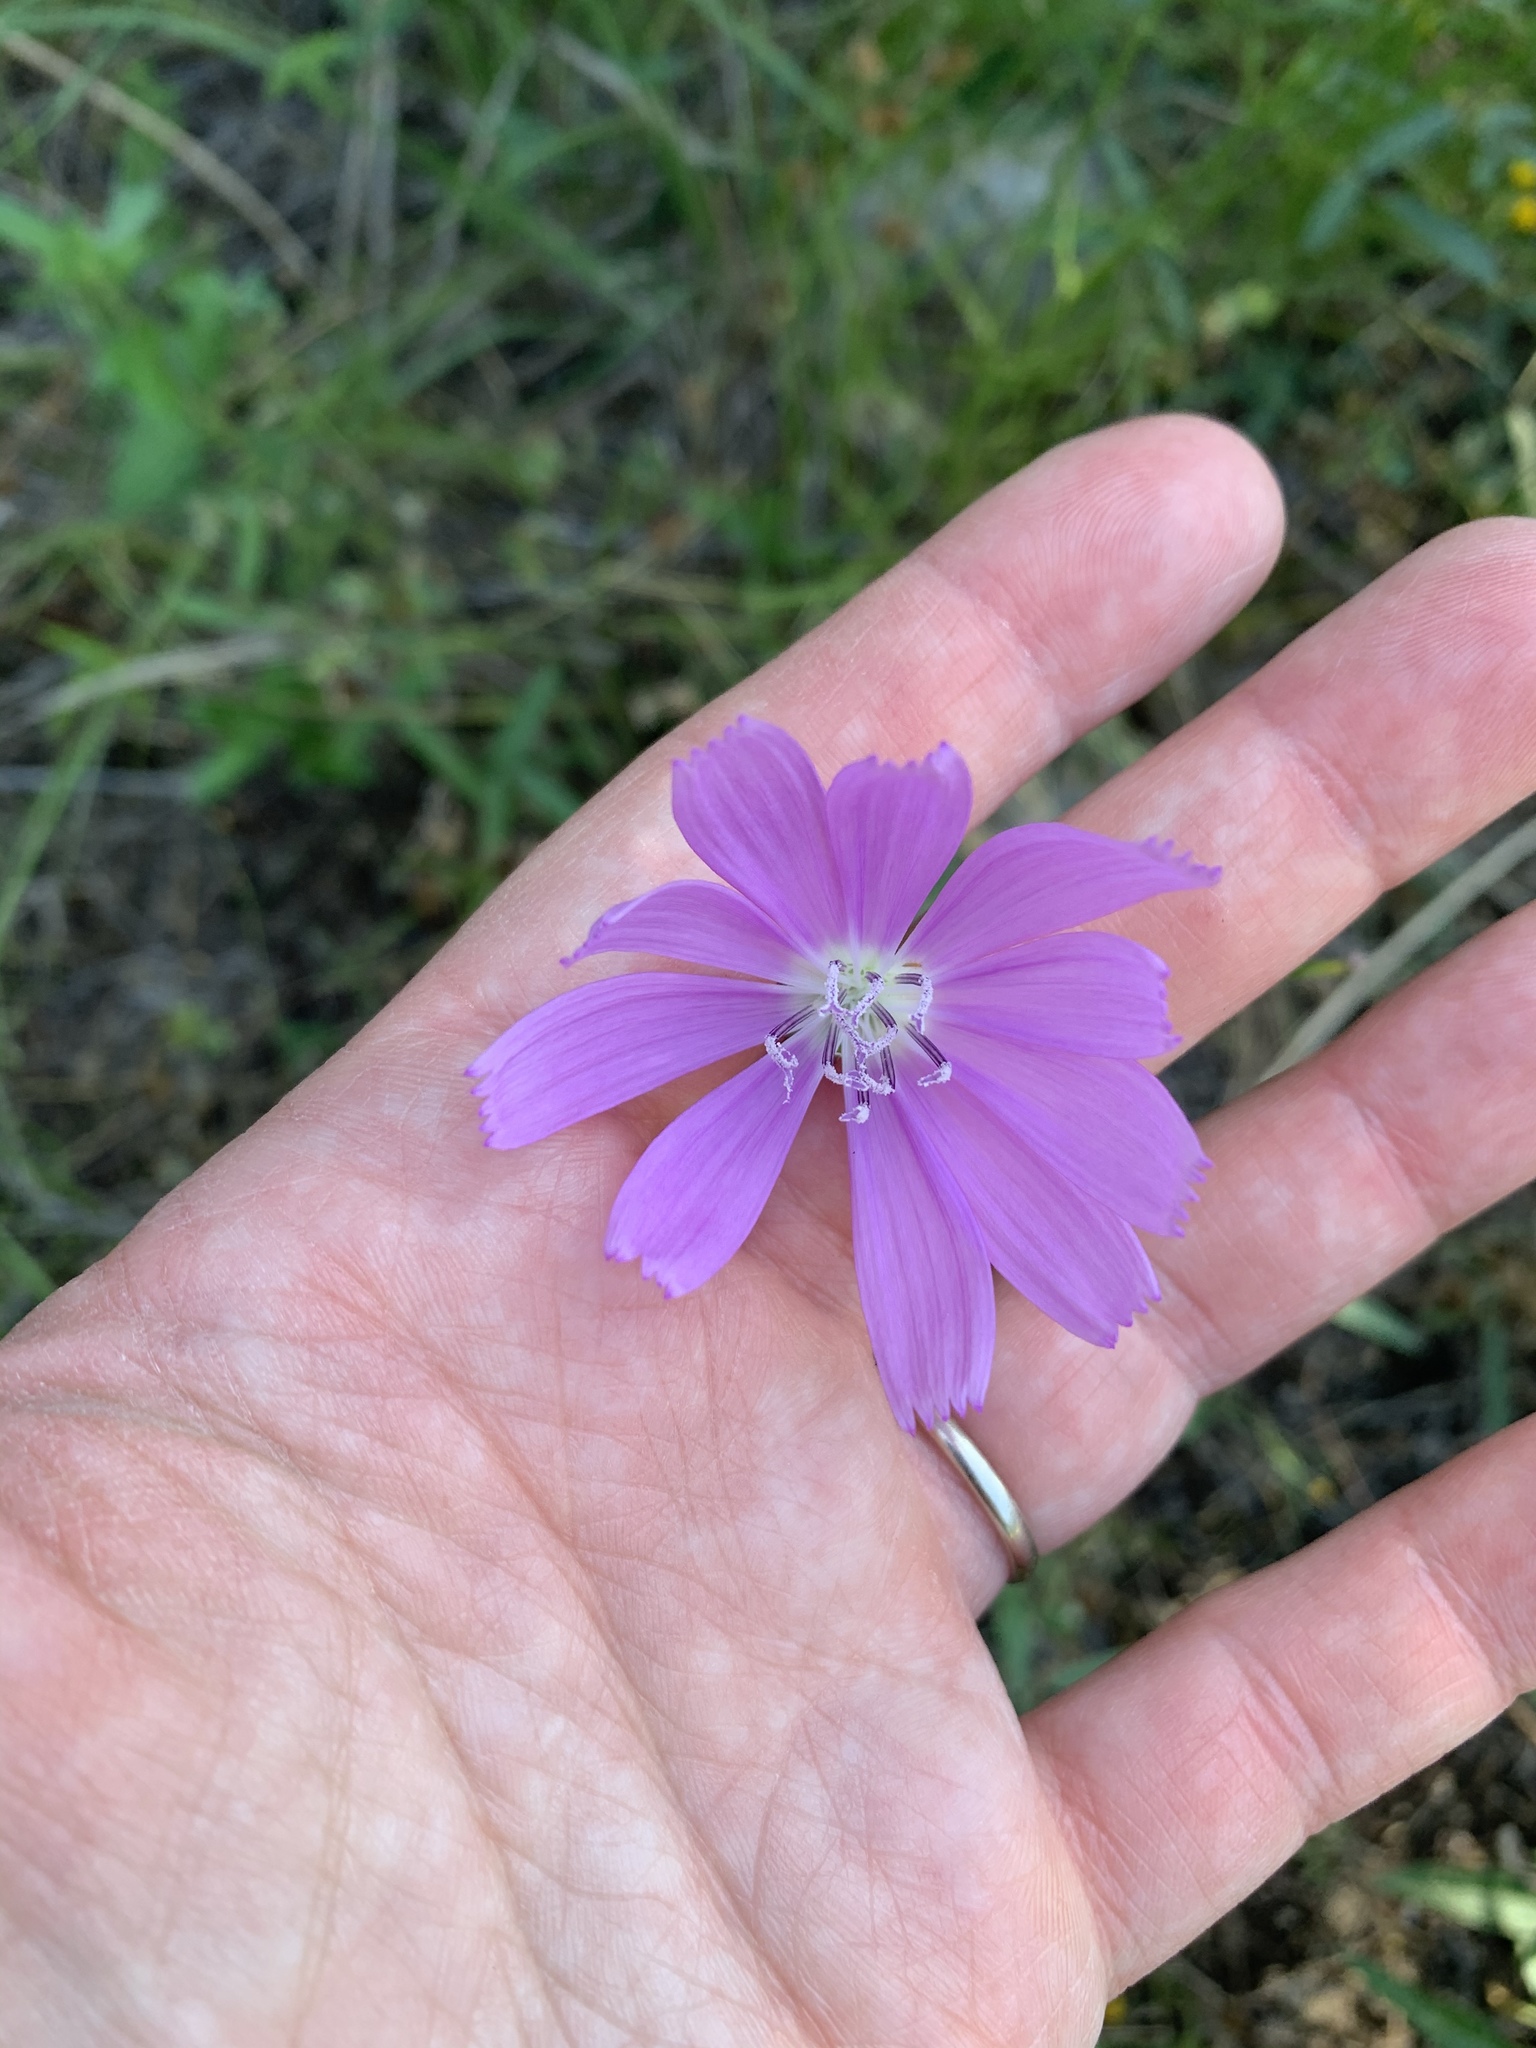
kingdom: Plantae
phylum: Tracheophyta
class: Magnoliopsida
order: Asterales
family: Asteraceae
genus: Lygodesmia
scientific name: Lygodesmia texana
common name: Texas skeleton-plant
